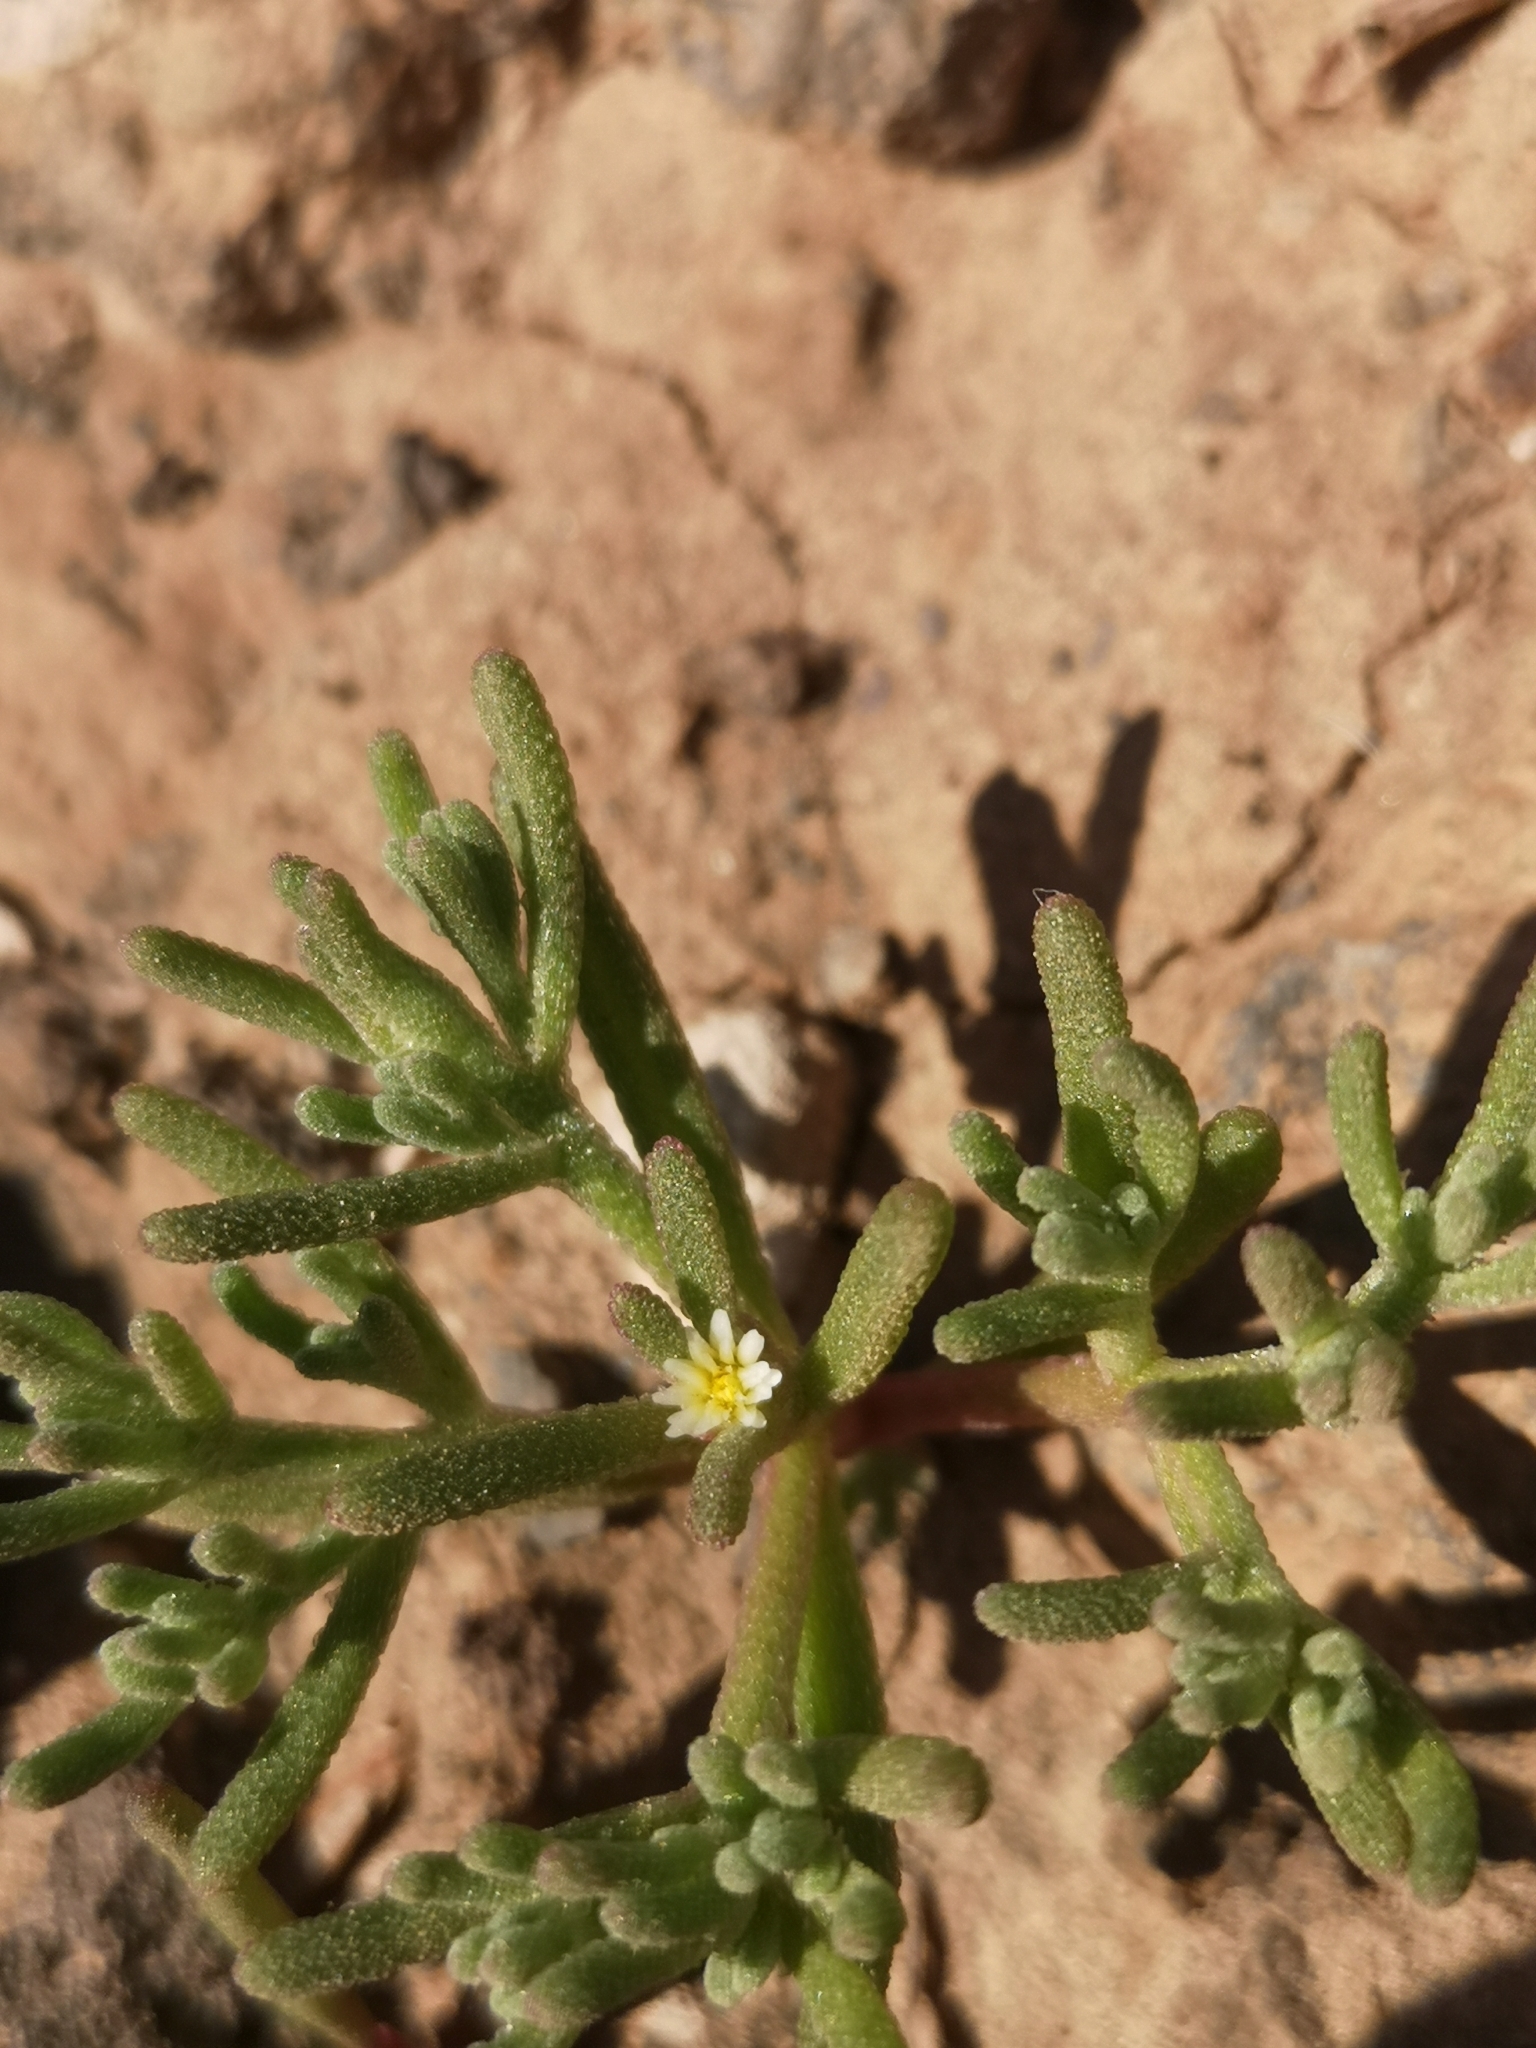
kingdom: Plantae
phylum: Tracheophyta
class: Magnoliopsida
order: Caryophyllales
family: Aizoaceae
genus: Mesembryanthemum
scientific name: Mesembryanthemum nodiflorum
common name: Slenderleaf iceplant
